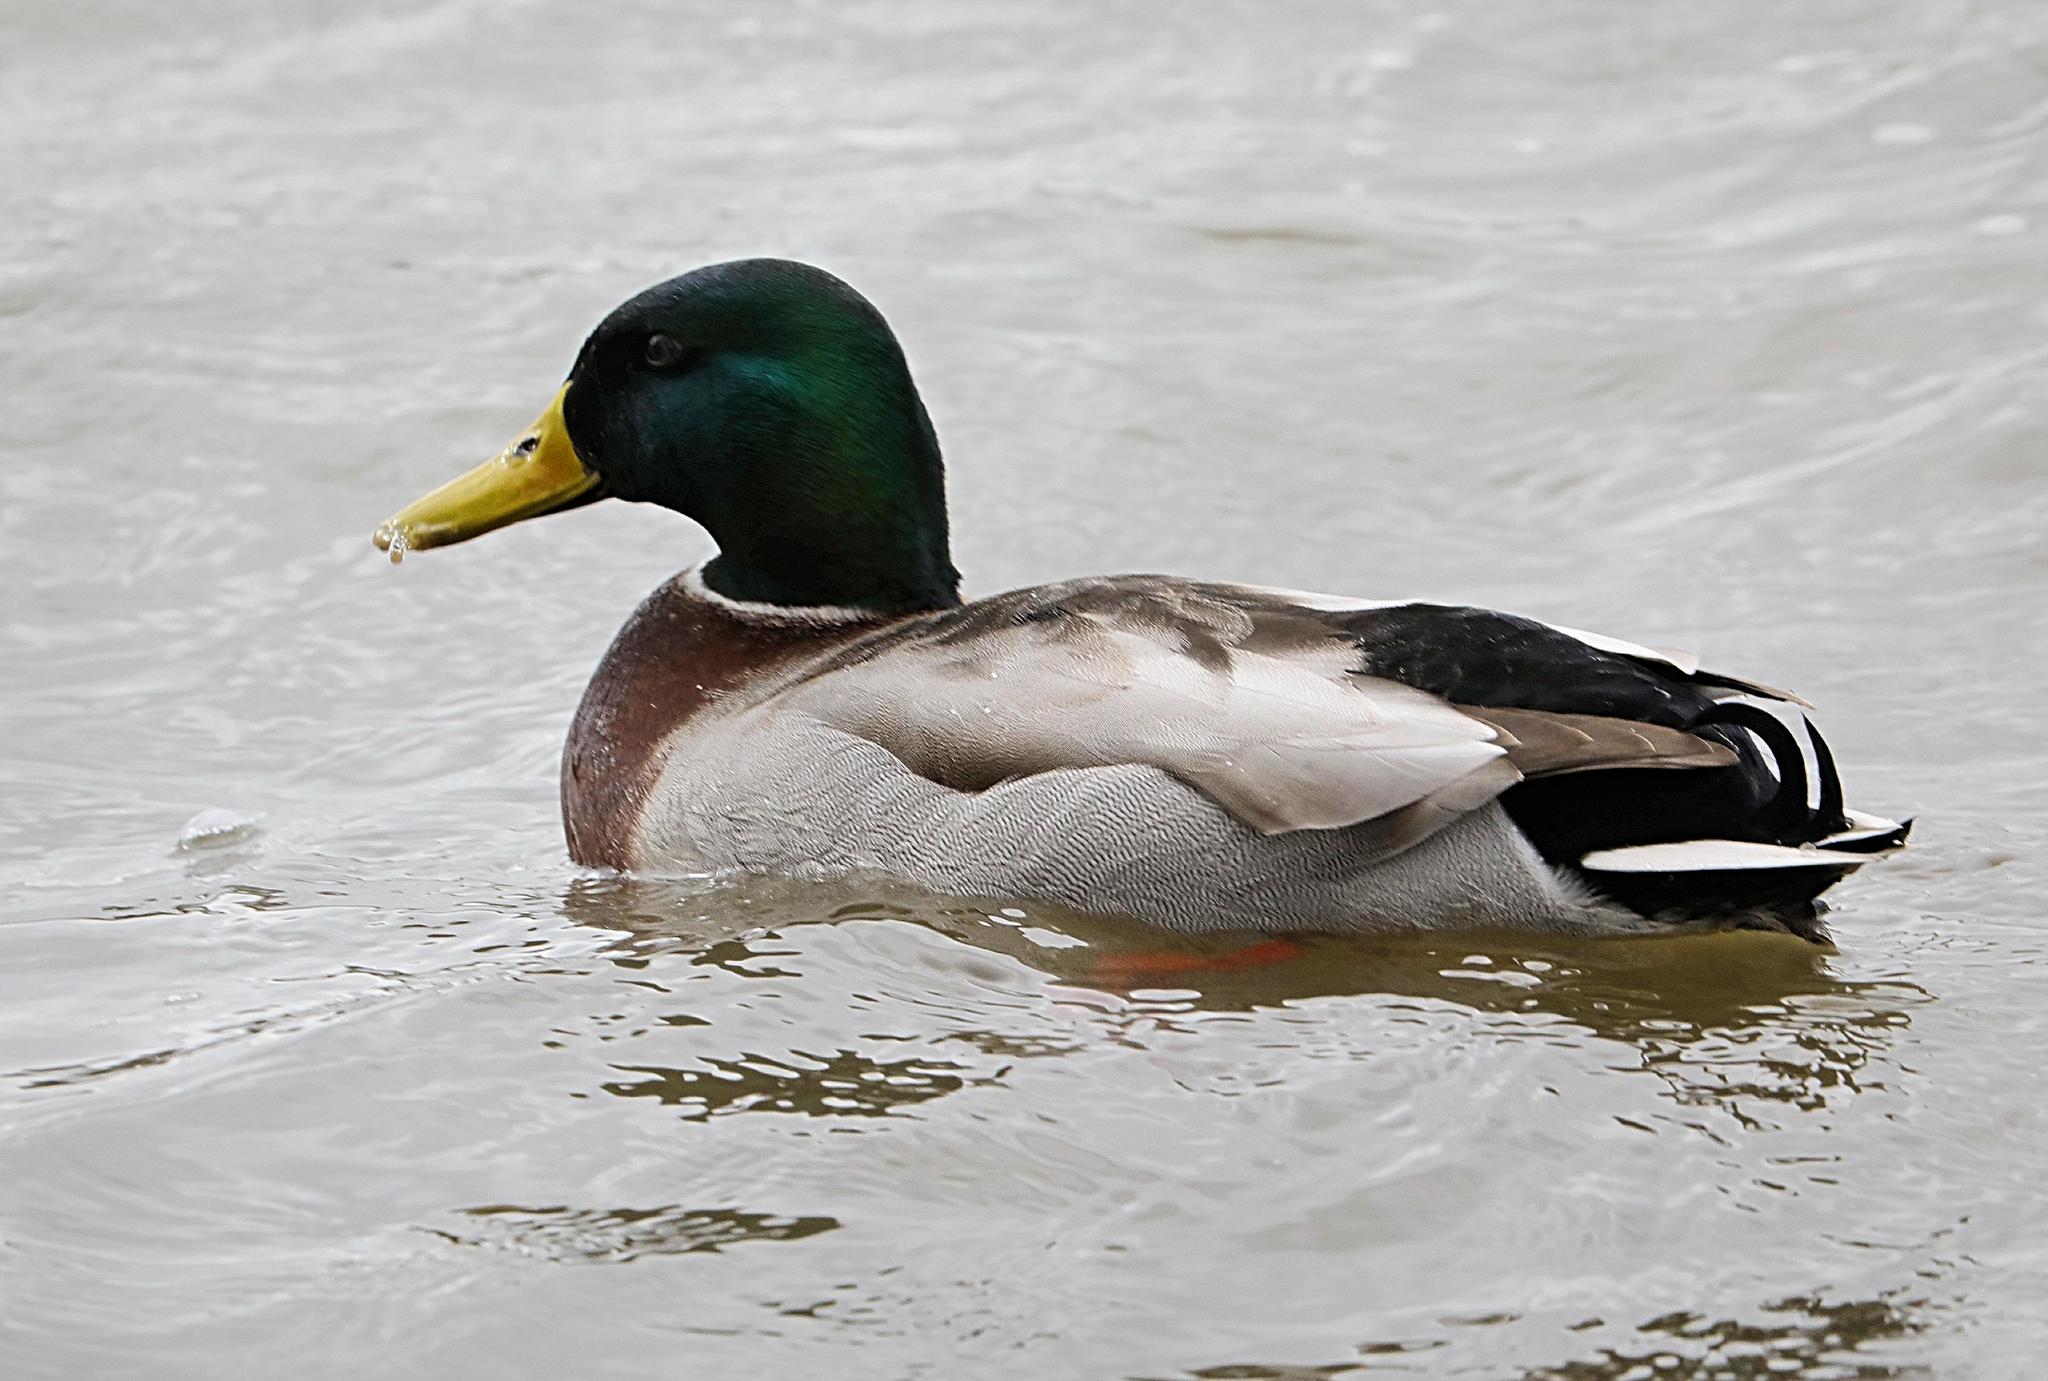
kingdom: Animalia
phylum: Chordata
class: Aves
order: Anseriformes
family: Anatidae
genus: Anas
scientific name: Anas platyrhynchos
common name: Mallard
